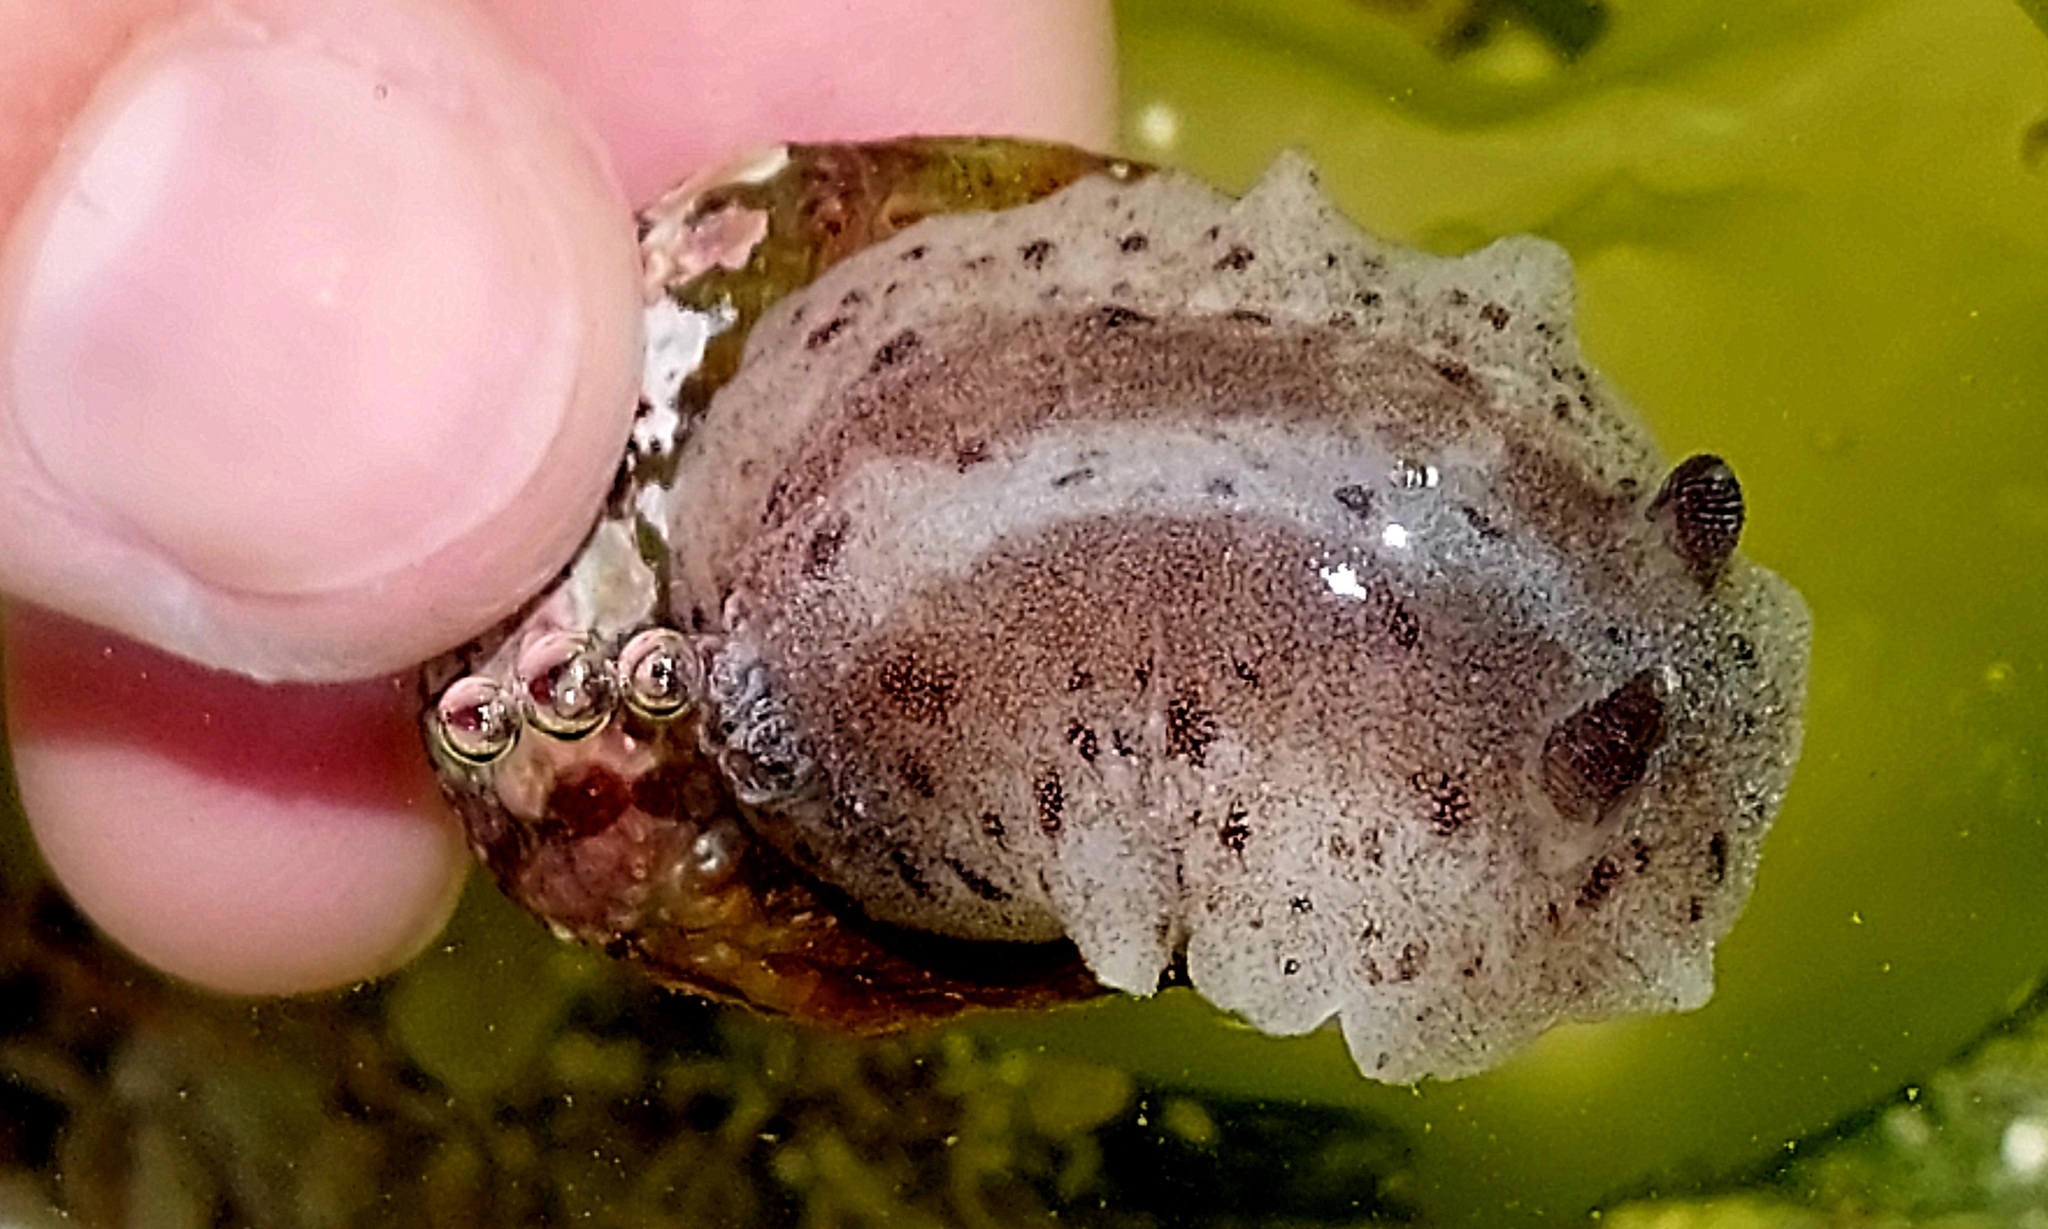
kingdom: Animalia
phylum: Mollusca
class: Gastropoda
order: Nudibranchia
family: Discodorididae
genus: Alloiodoris
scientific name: Alloiodoris lanuginata
